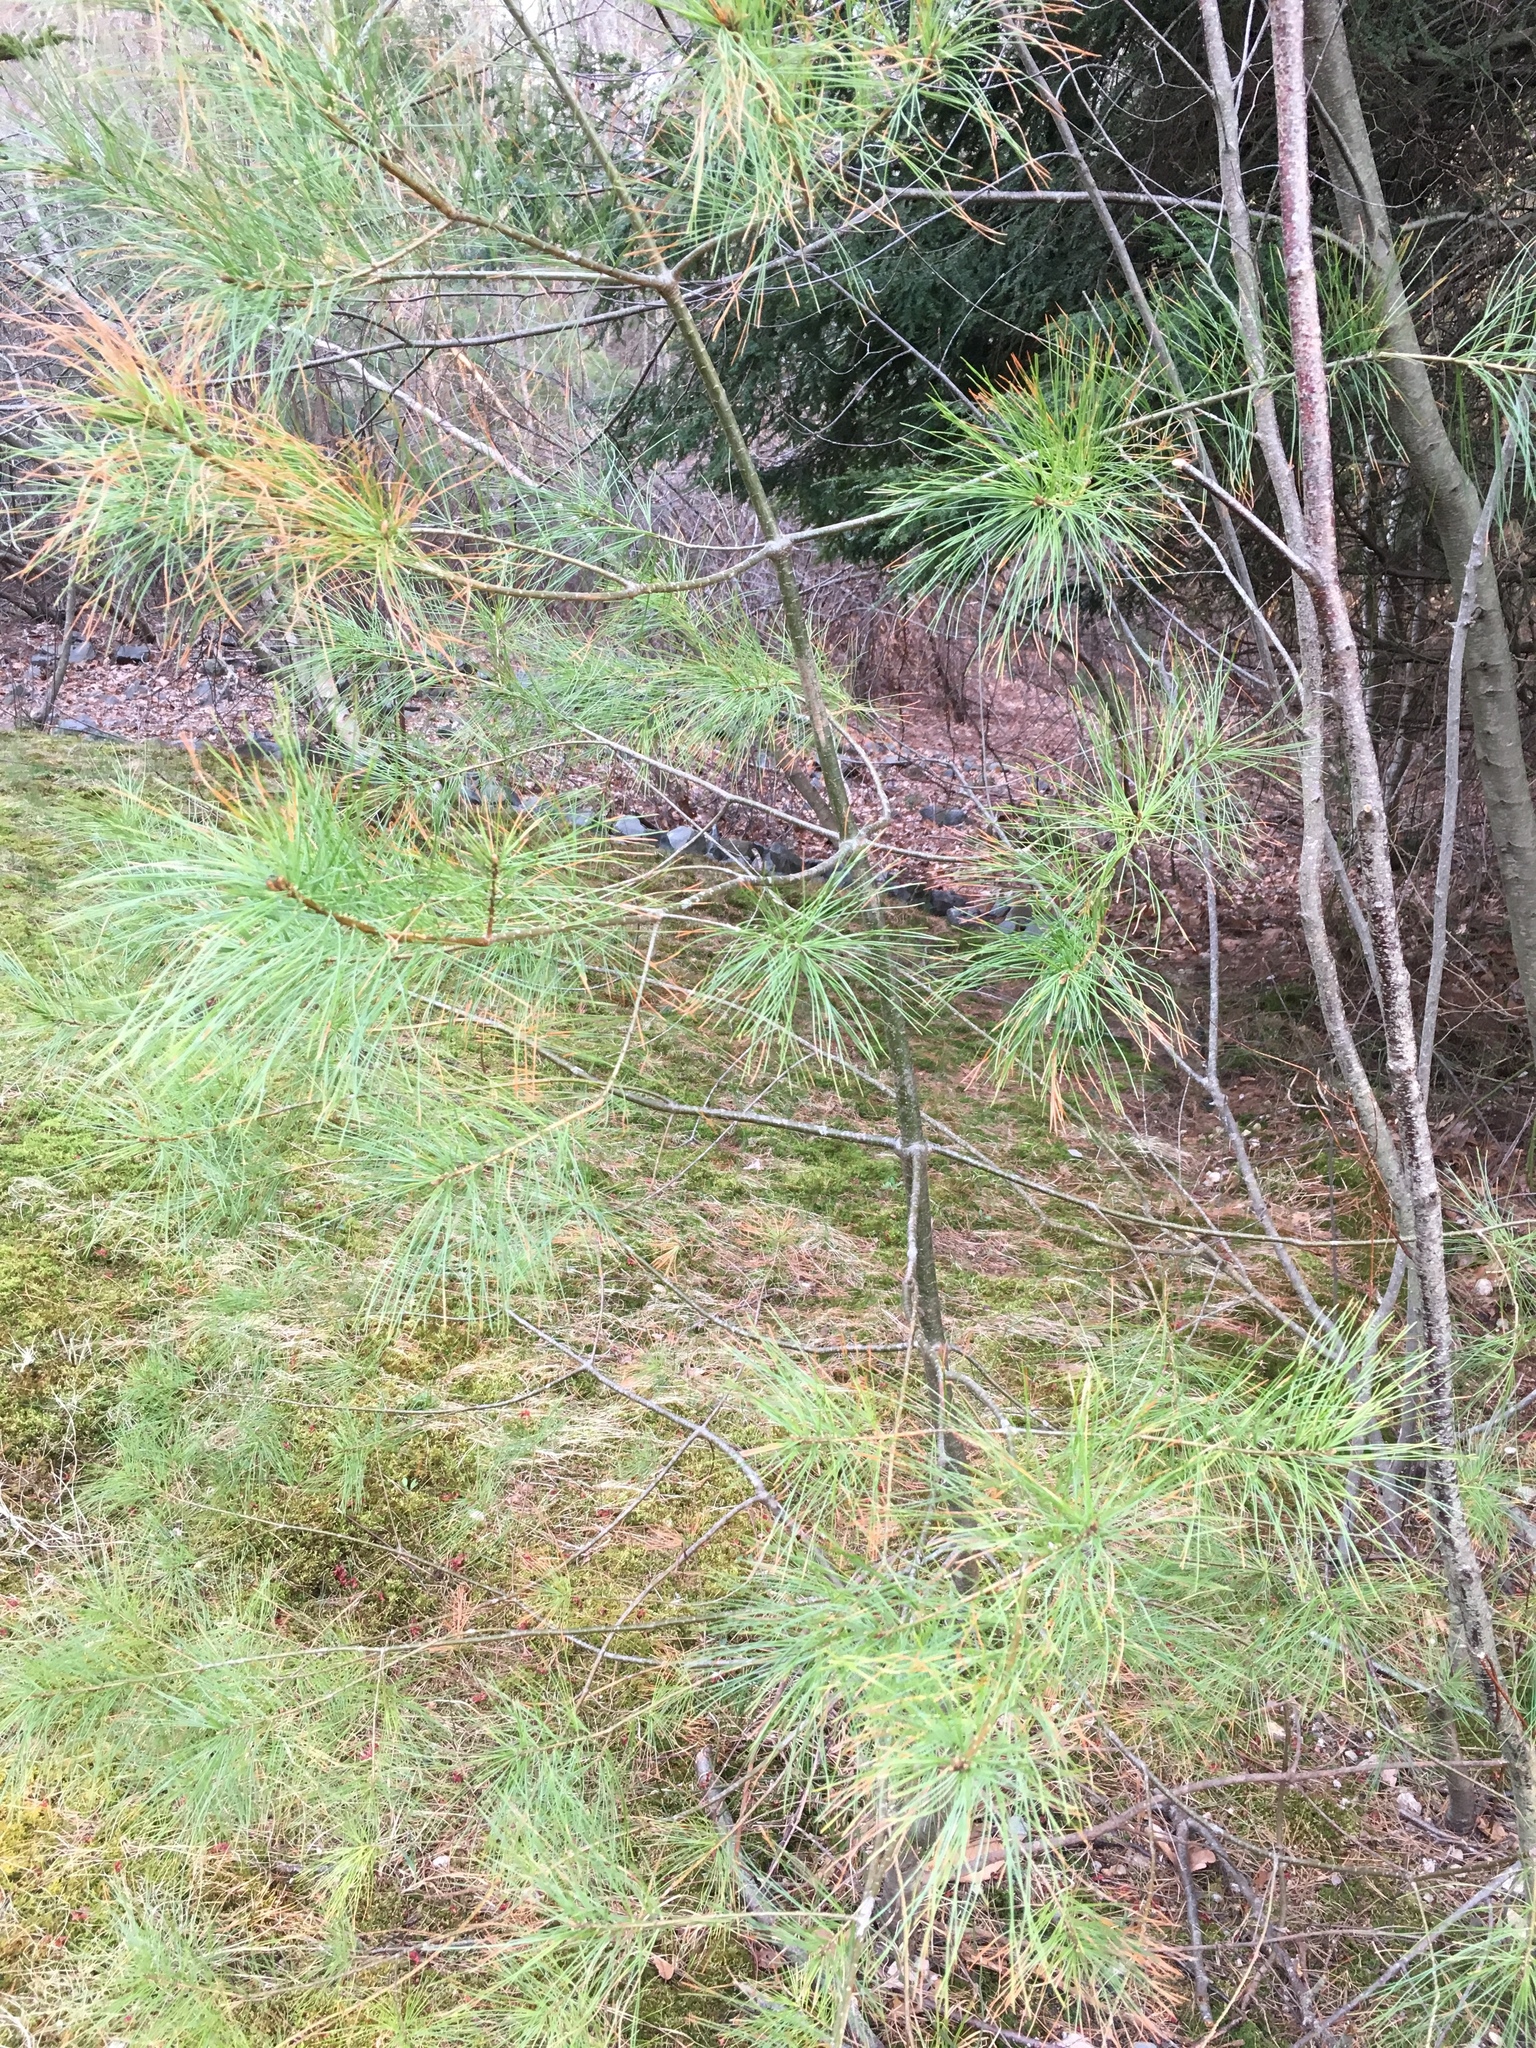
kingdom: Plantae
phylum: Tracheophyta
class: Pinopsida
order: Pinales
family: Pinaceae
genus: Pinus
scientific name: Pinus strobus
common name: Weymouth pine
